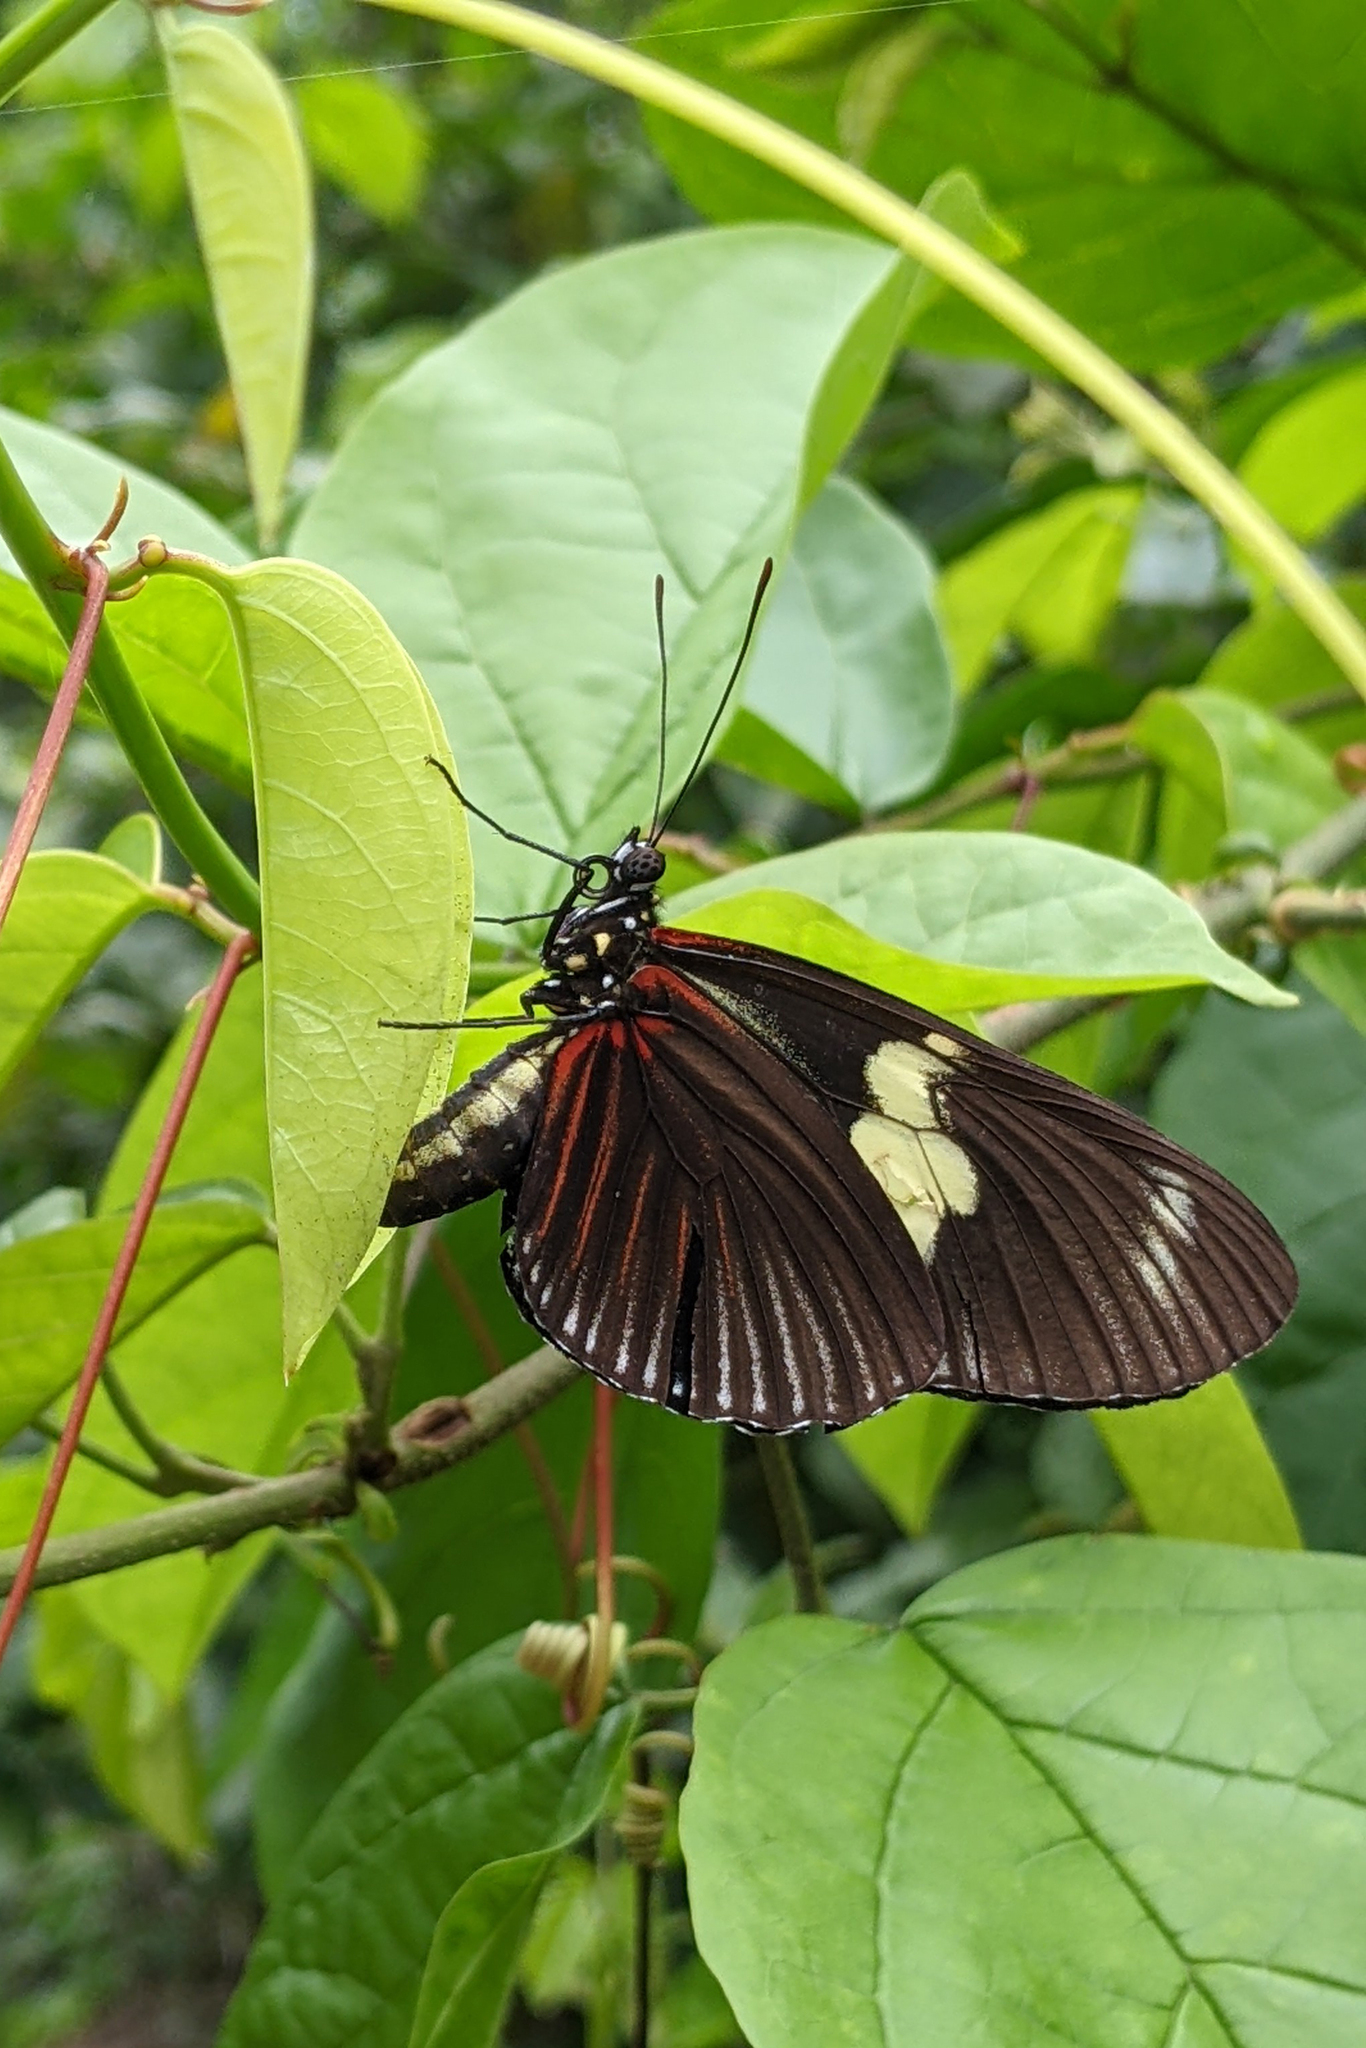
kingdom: Animalia
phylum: Arthropoda
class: Insecta
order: Lepidoptera
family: Nymphalidae
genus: Heliconius
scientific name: Heliconius doris
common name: Doris longwing
